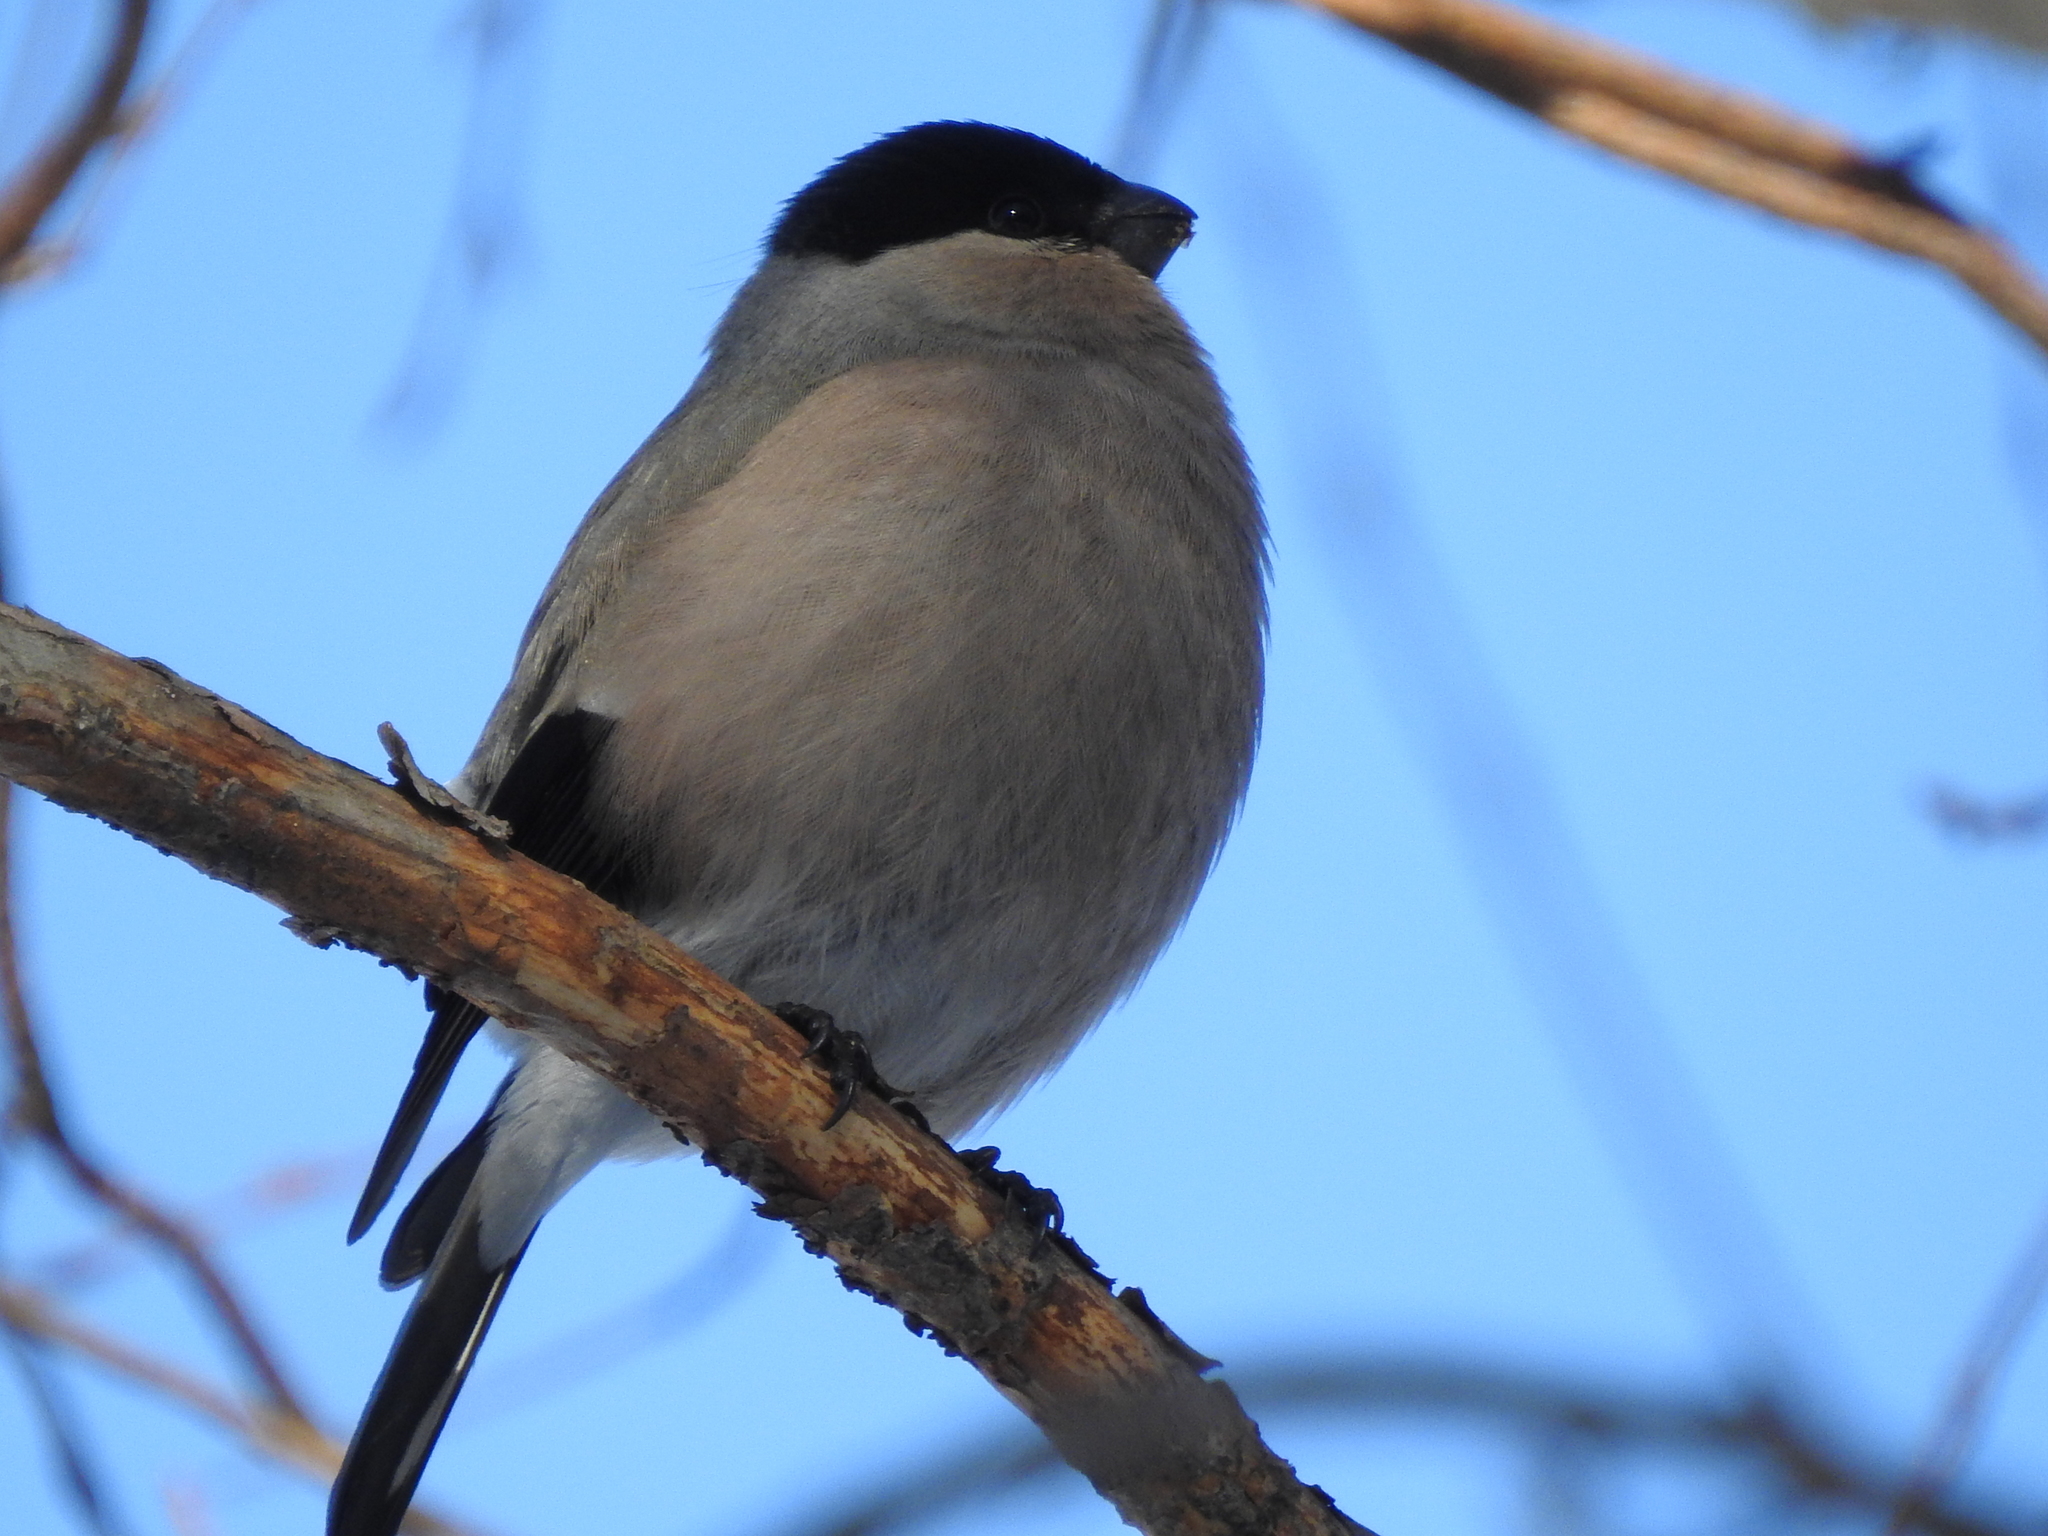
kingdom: Animalia
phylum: Chordata
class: Aves
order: Passeriformes
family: Fringillidae
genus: Pyrrhula
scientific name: Pyrrhula pyrrhula
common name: Eurasian bullfinch
